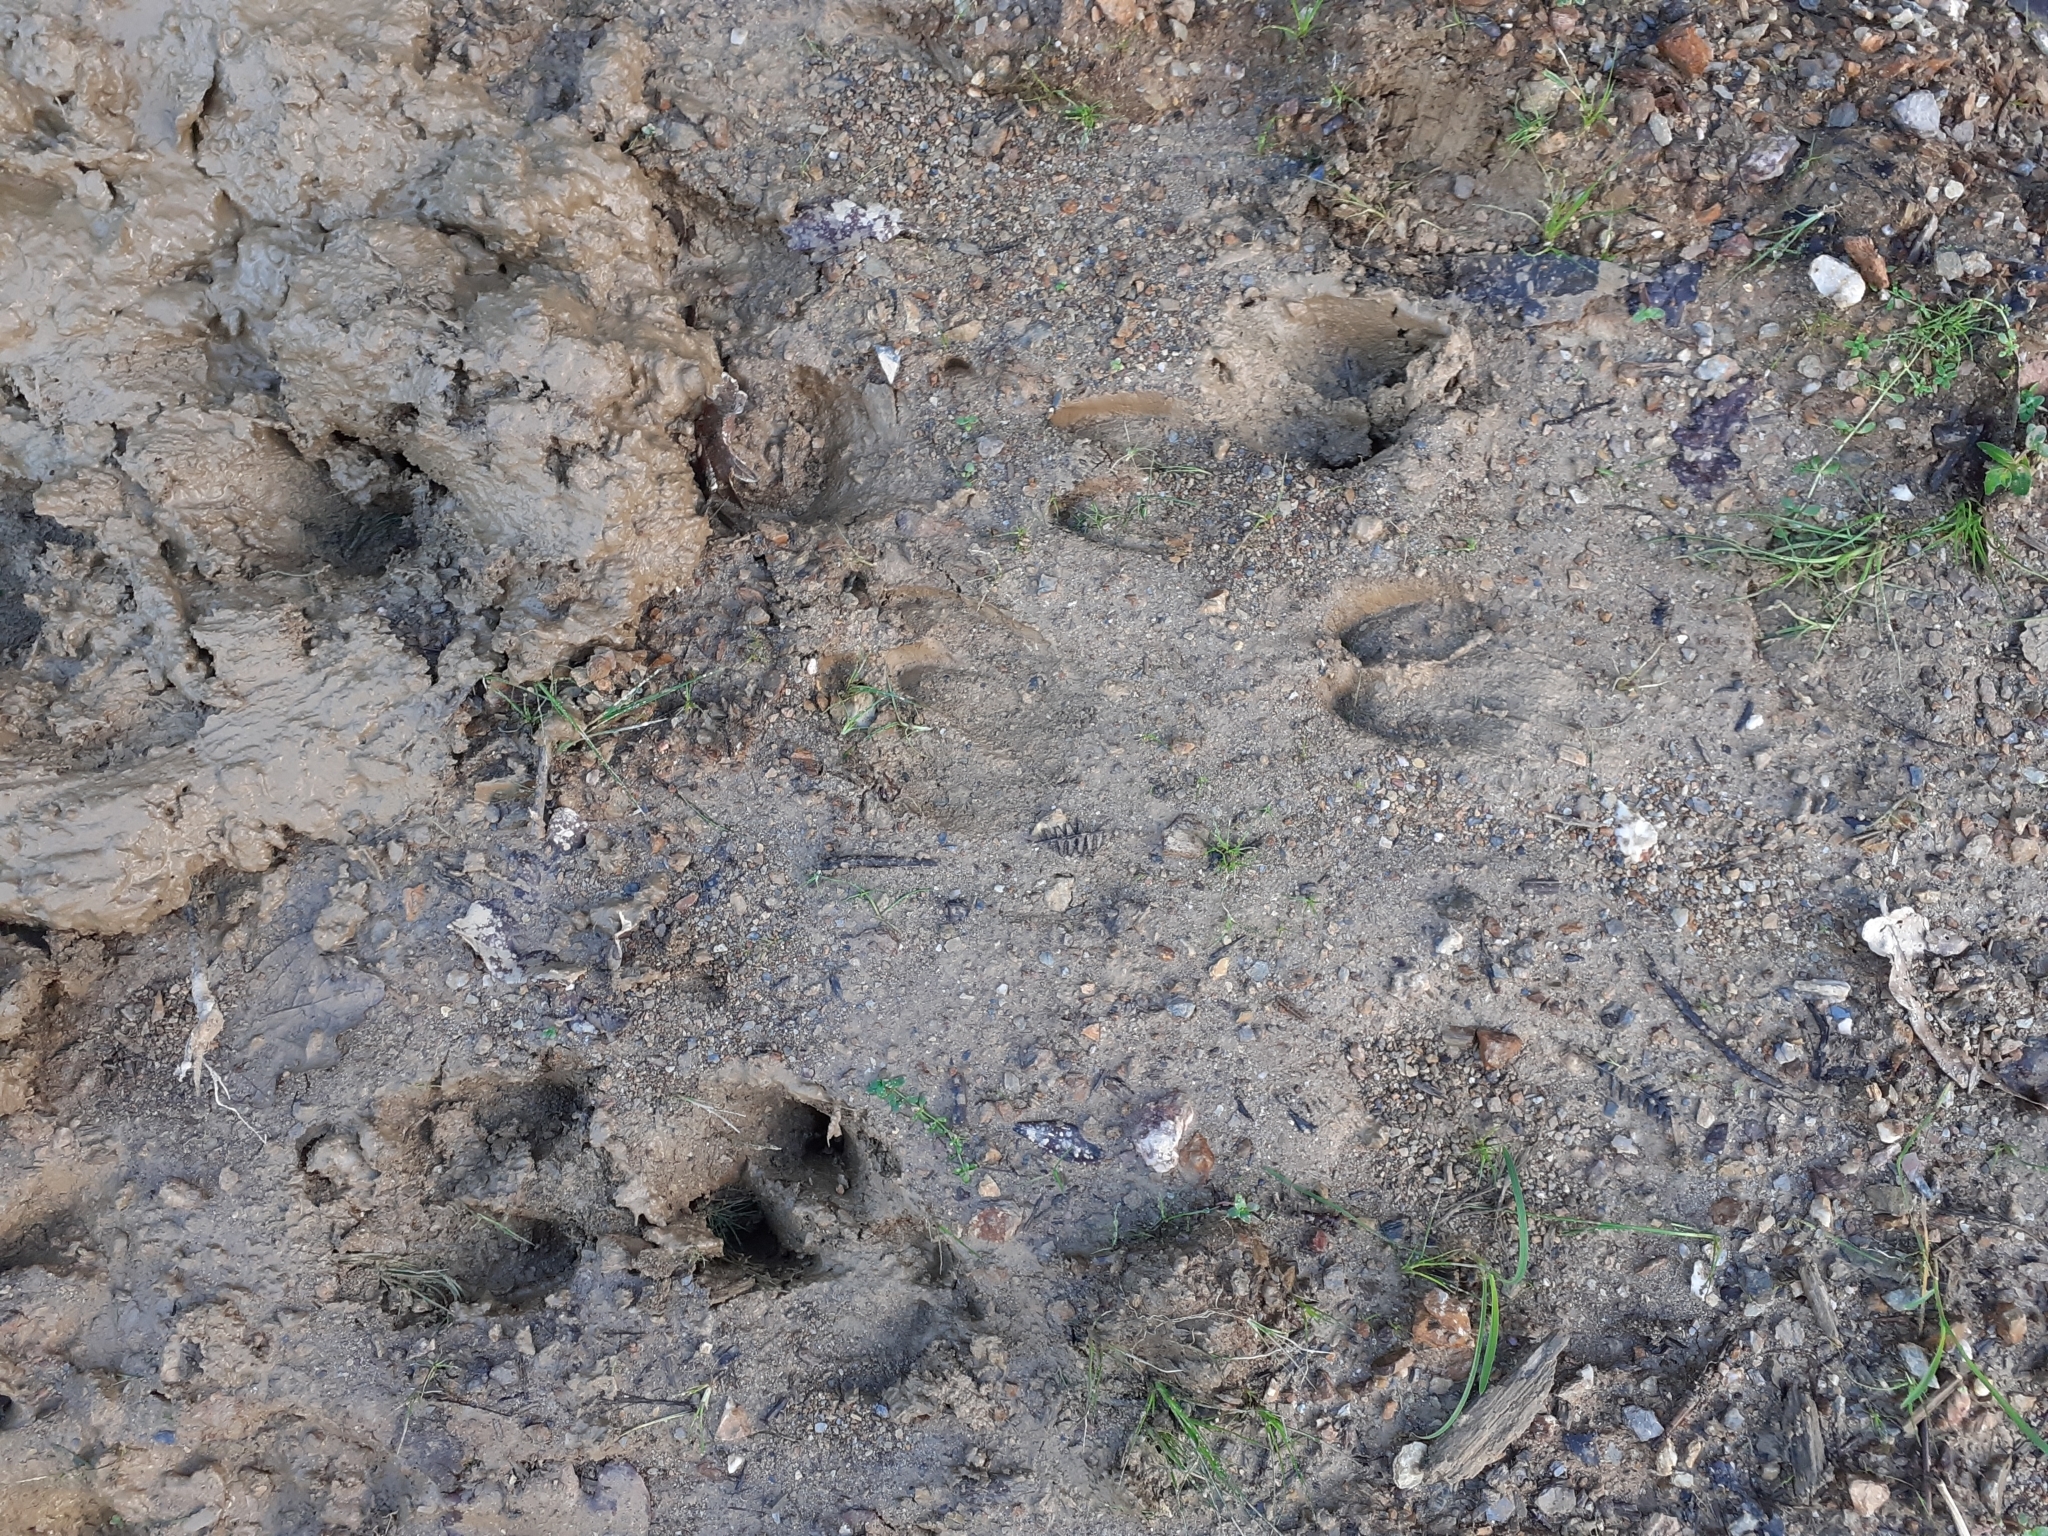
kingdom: Animalia
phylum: Chordata
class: Mammalia
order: Artiodactyla
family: Suidae
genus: Sus
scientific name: Sus scrofa
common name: Wild boar
